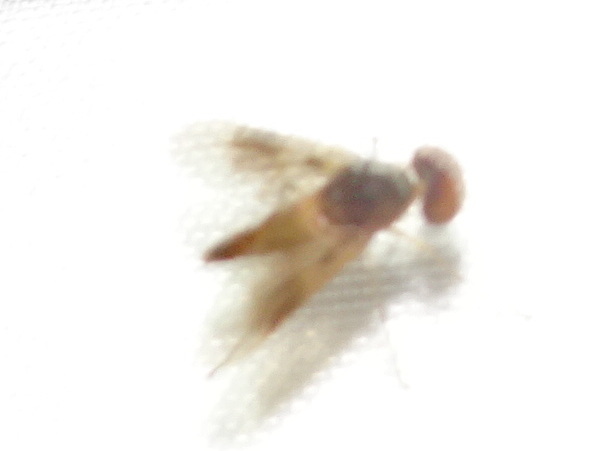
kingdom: Animalia
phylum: Arthropoda
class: Insecta
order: Diptera
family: Rhagionidae
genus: Chrysopilus
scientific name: Chrysopilus quadratus
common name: Quadrate snipe fly
